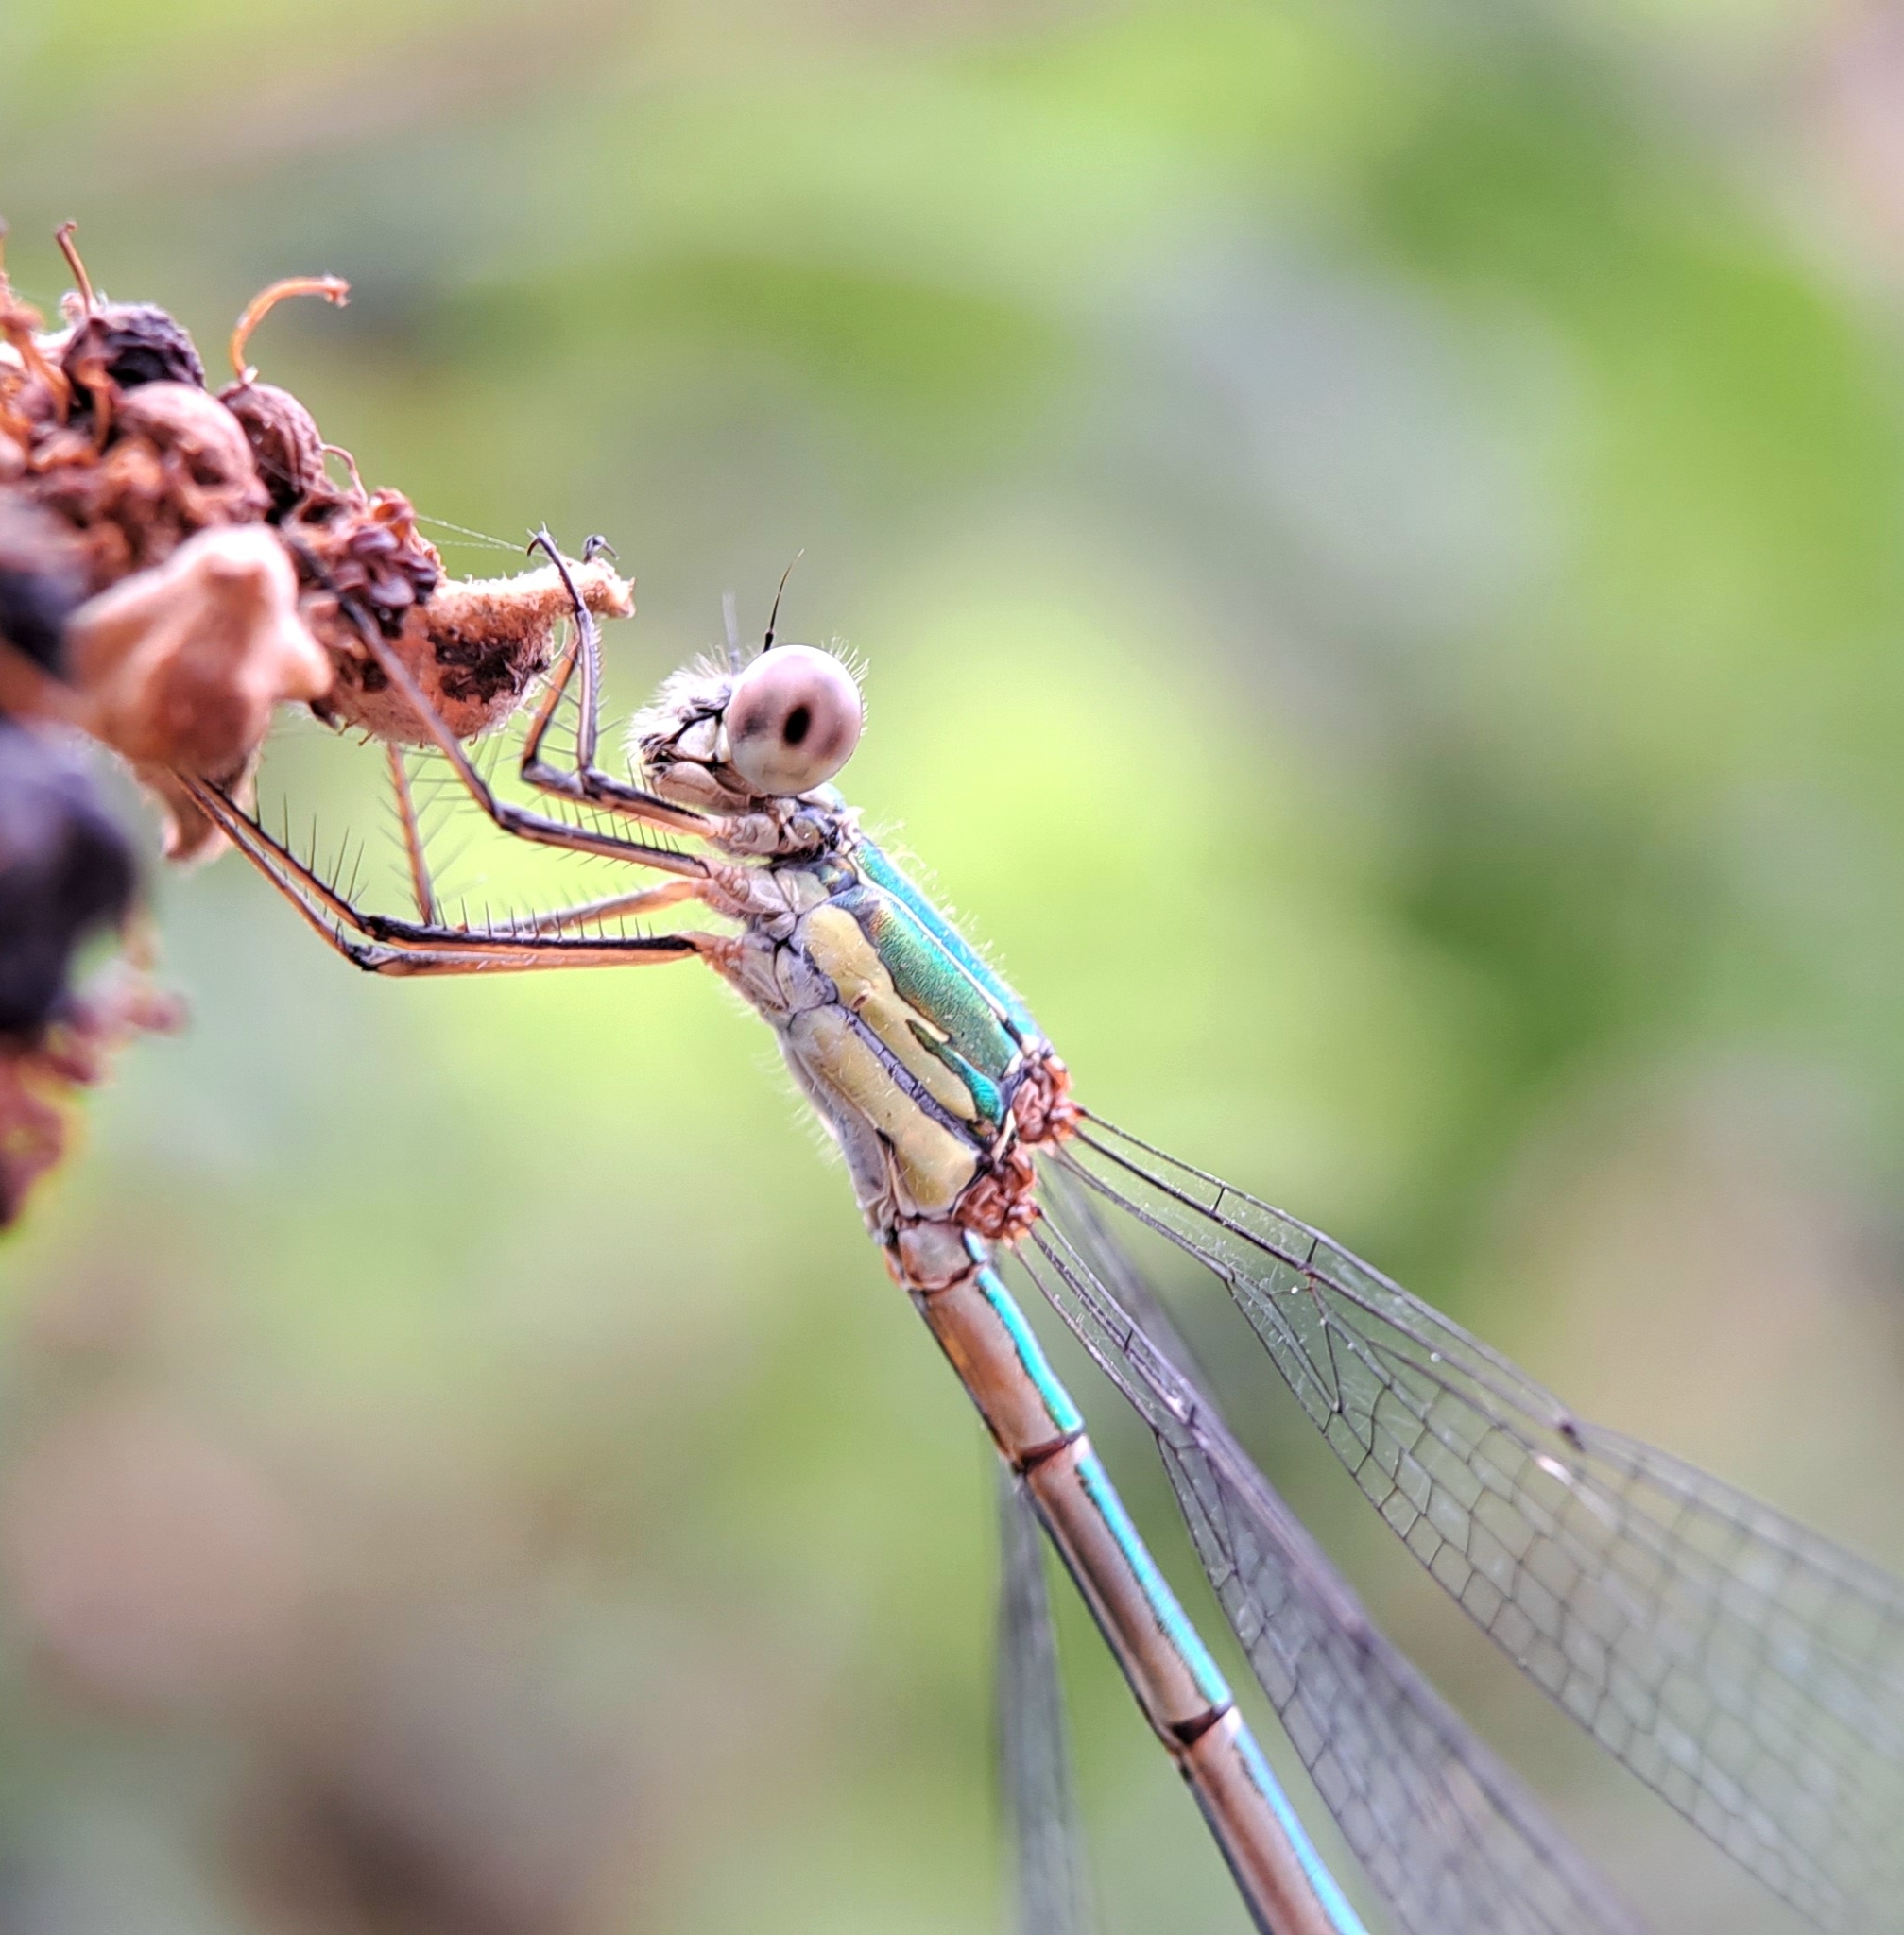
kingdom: Animalia
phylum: Arthropoda
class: Insecta
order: Odonata
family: Lestidae
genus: Chalcolestes
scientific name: Chalcolestes viridis
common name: Green emerald damselfly
